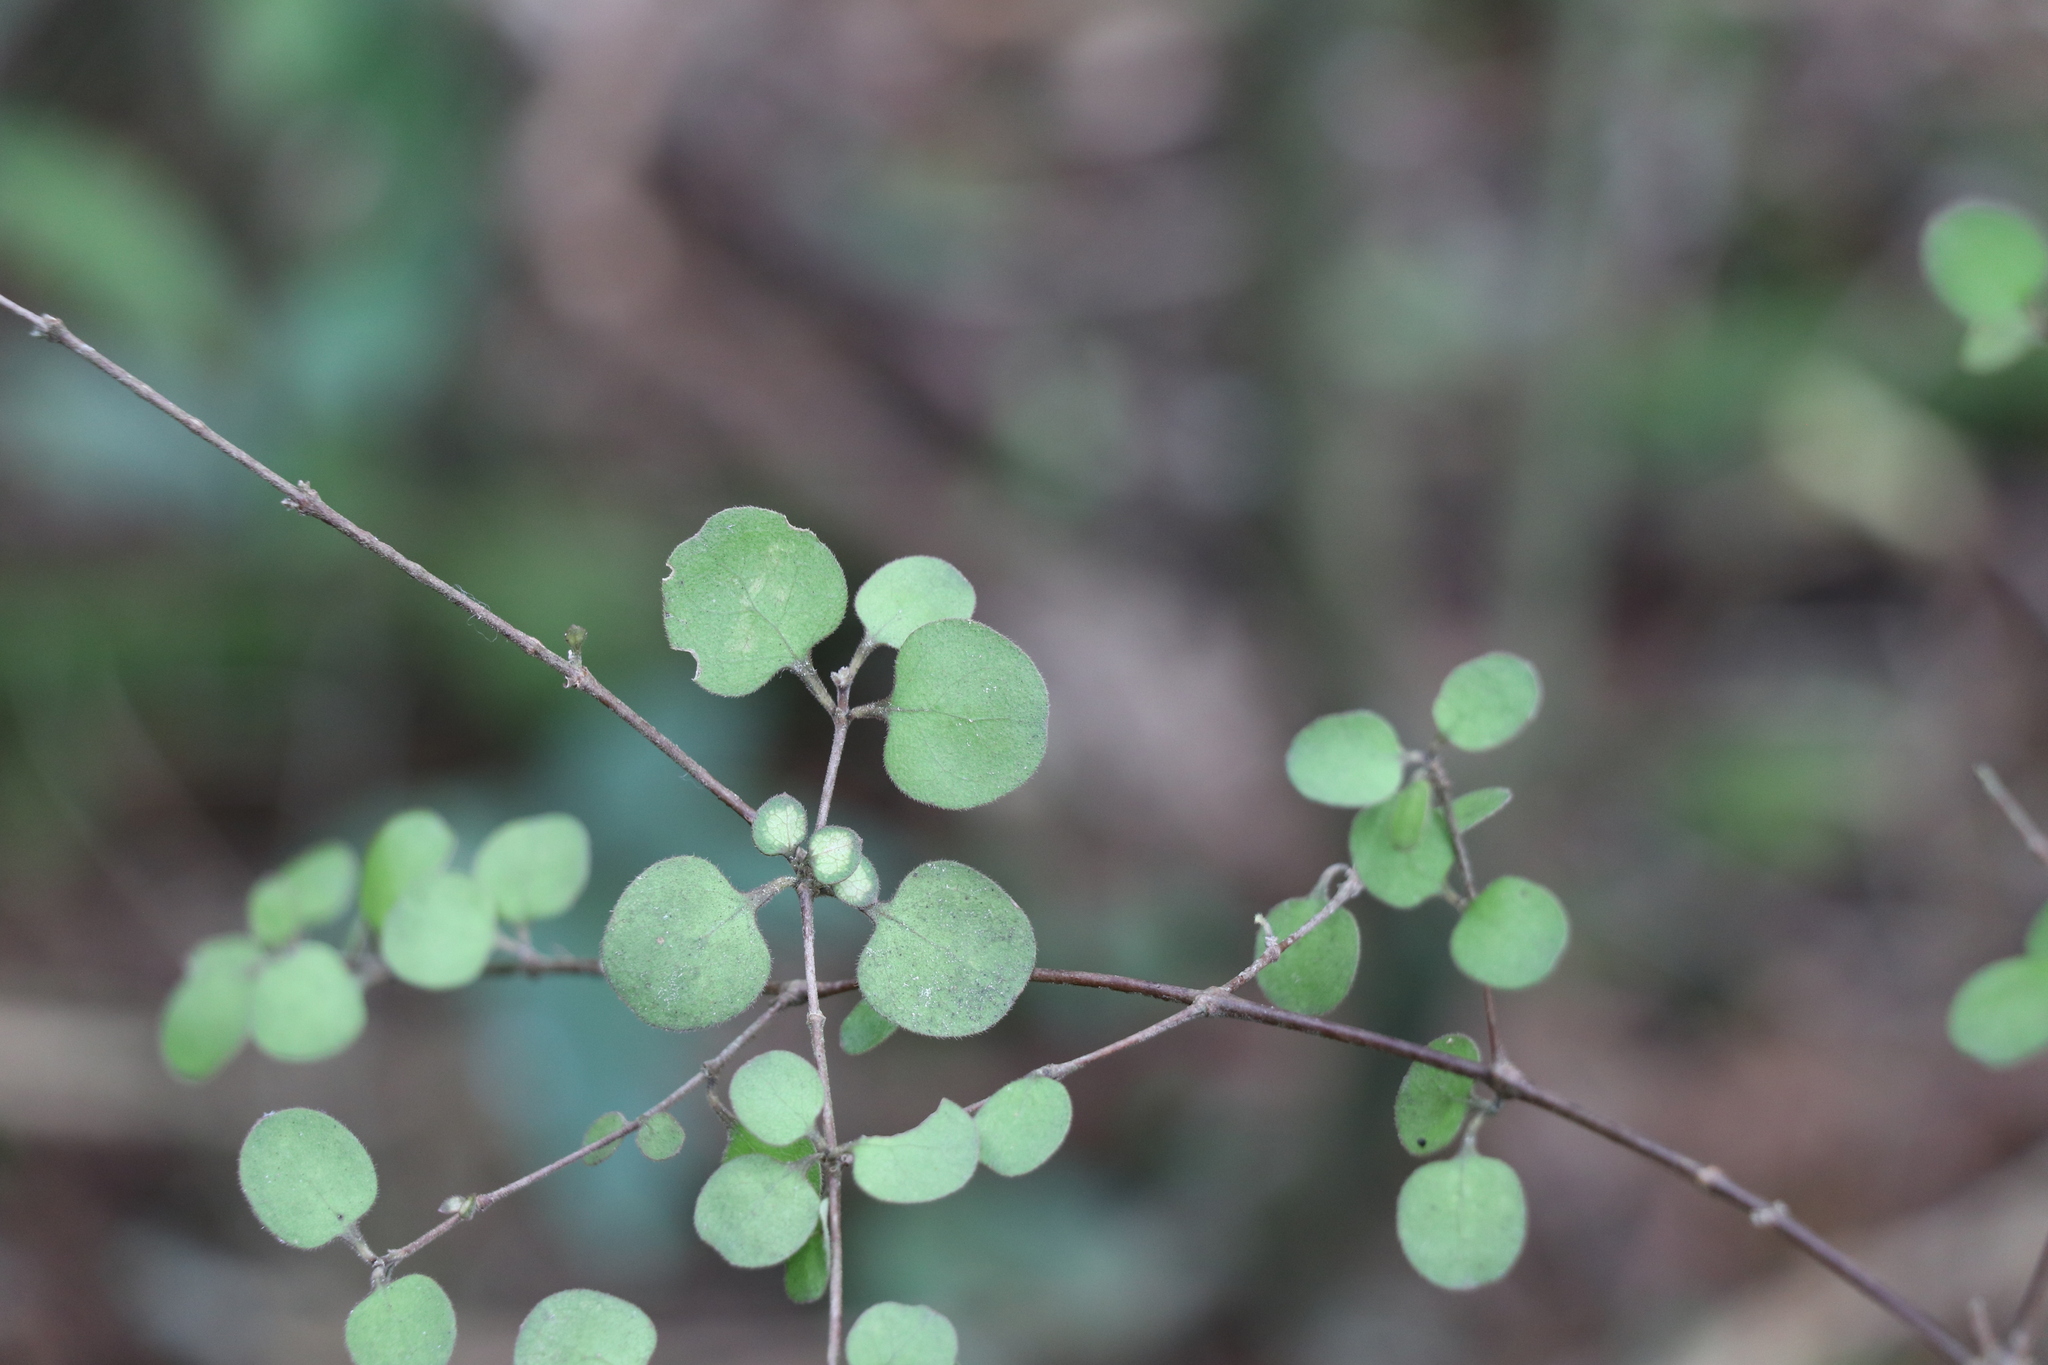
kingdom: Plantae
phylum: Tracheophyta
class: Magnoliopsida
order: Gentianales
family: Rubiaceae
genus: Coprosma
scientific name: Coprosma crassifolia
